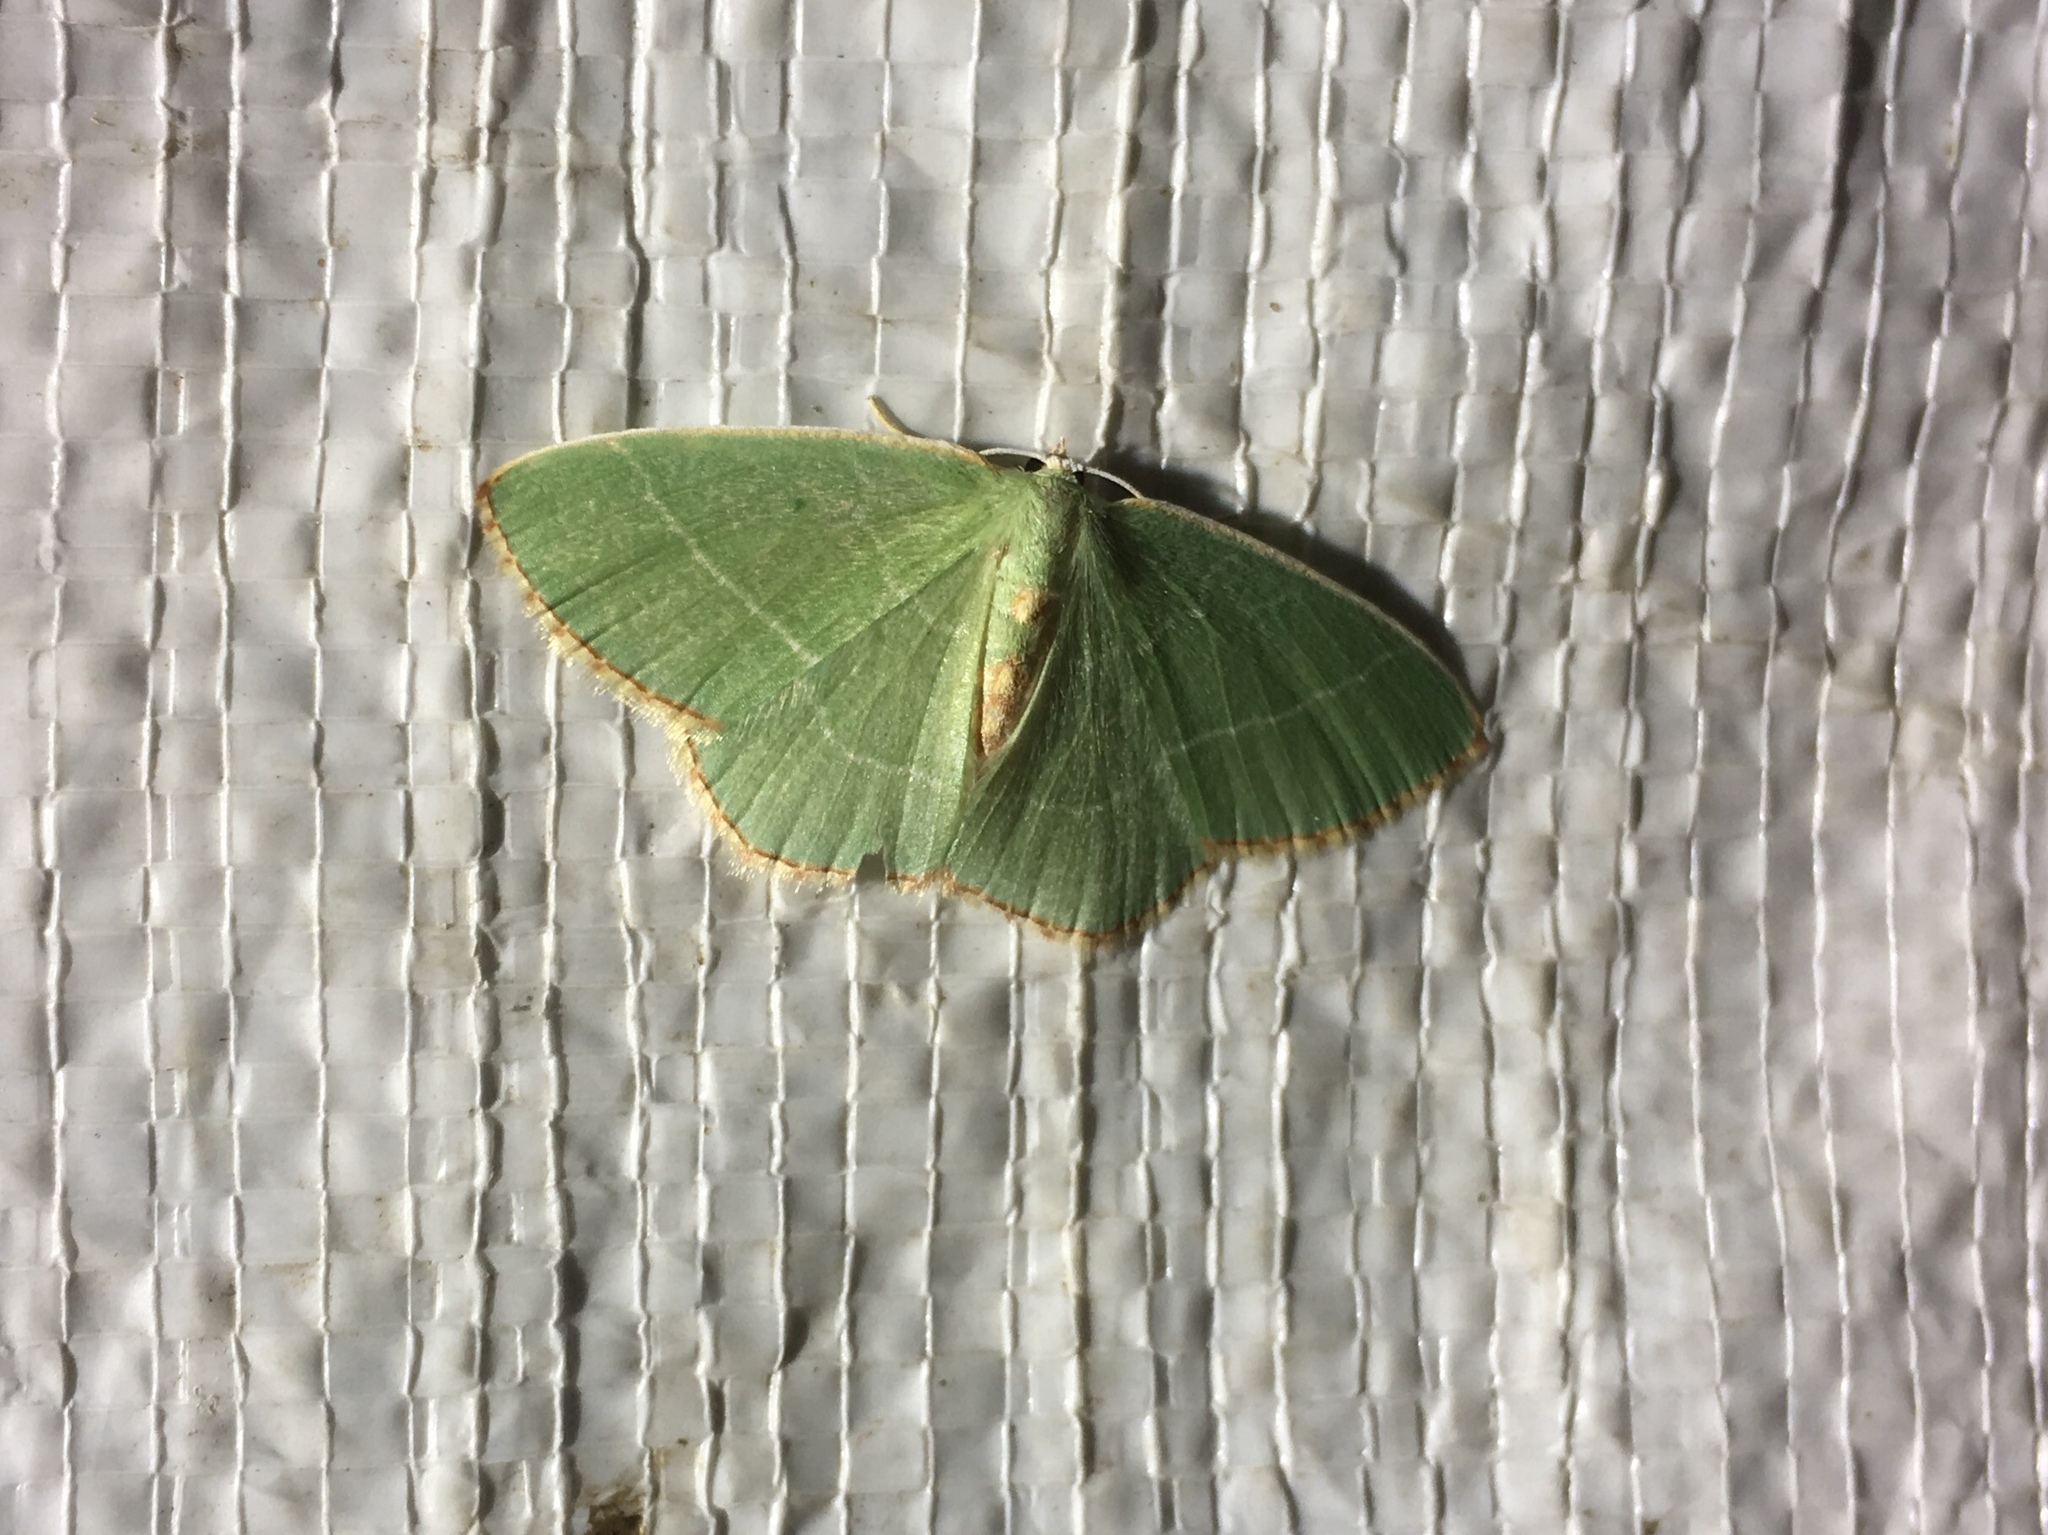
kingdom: Animalia
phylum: Arthropoda
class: Insecta
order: Lepidoptera
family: Geometridae
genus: Nemoria
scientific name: Nemoria bistriaria
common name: Red-fringed emerald
